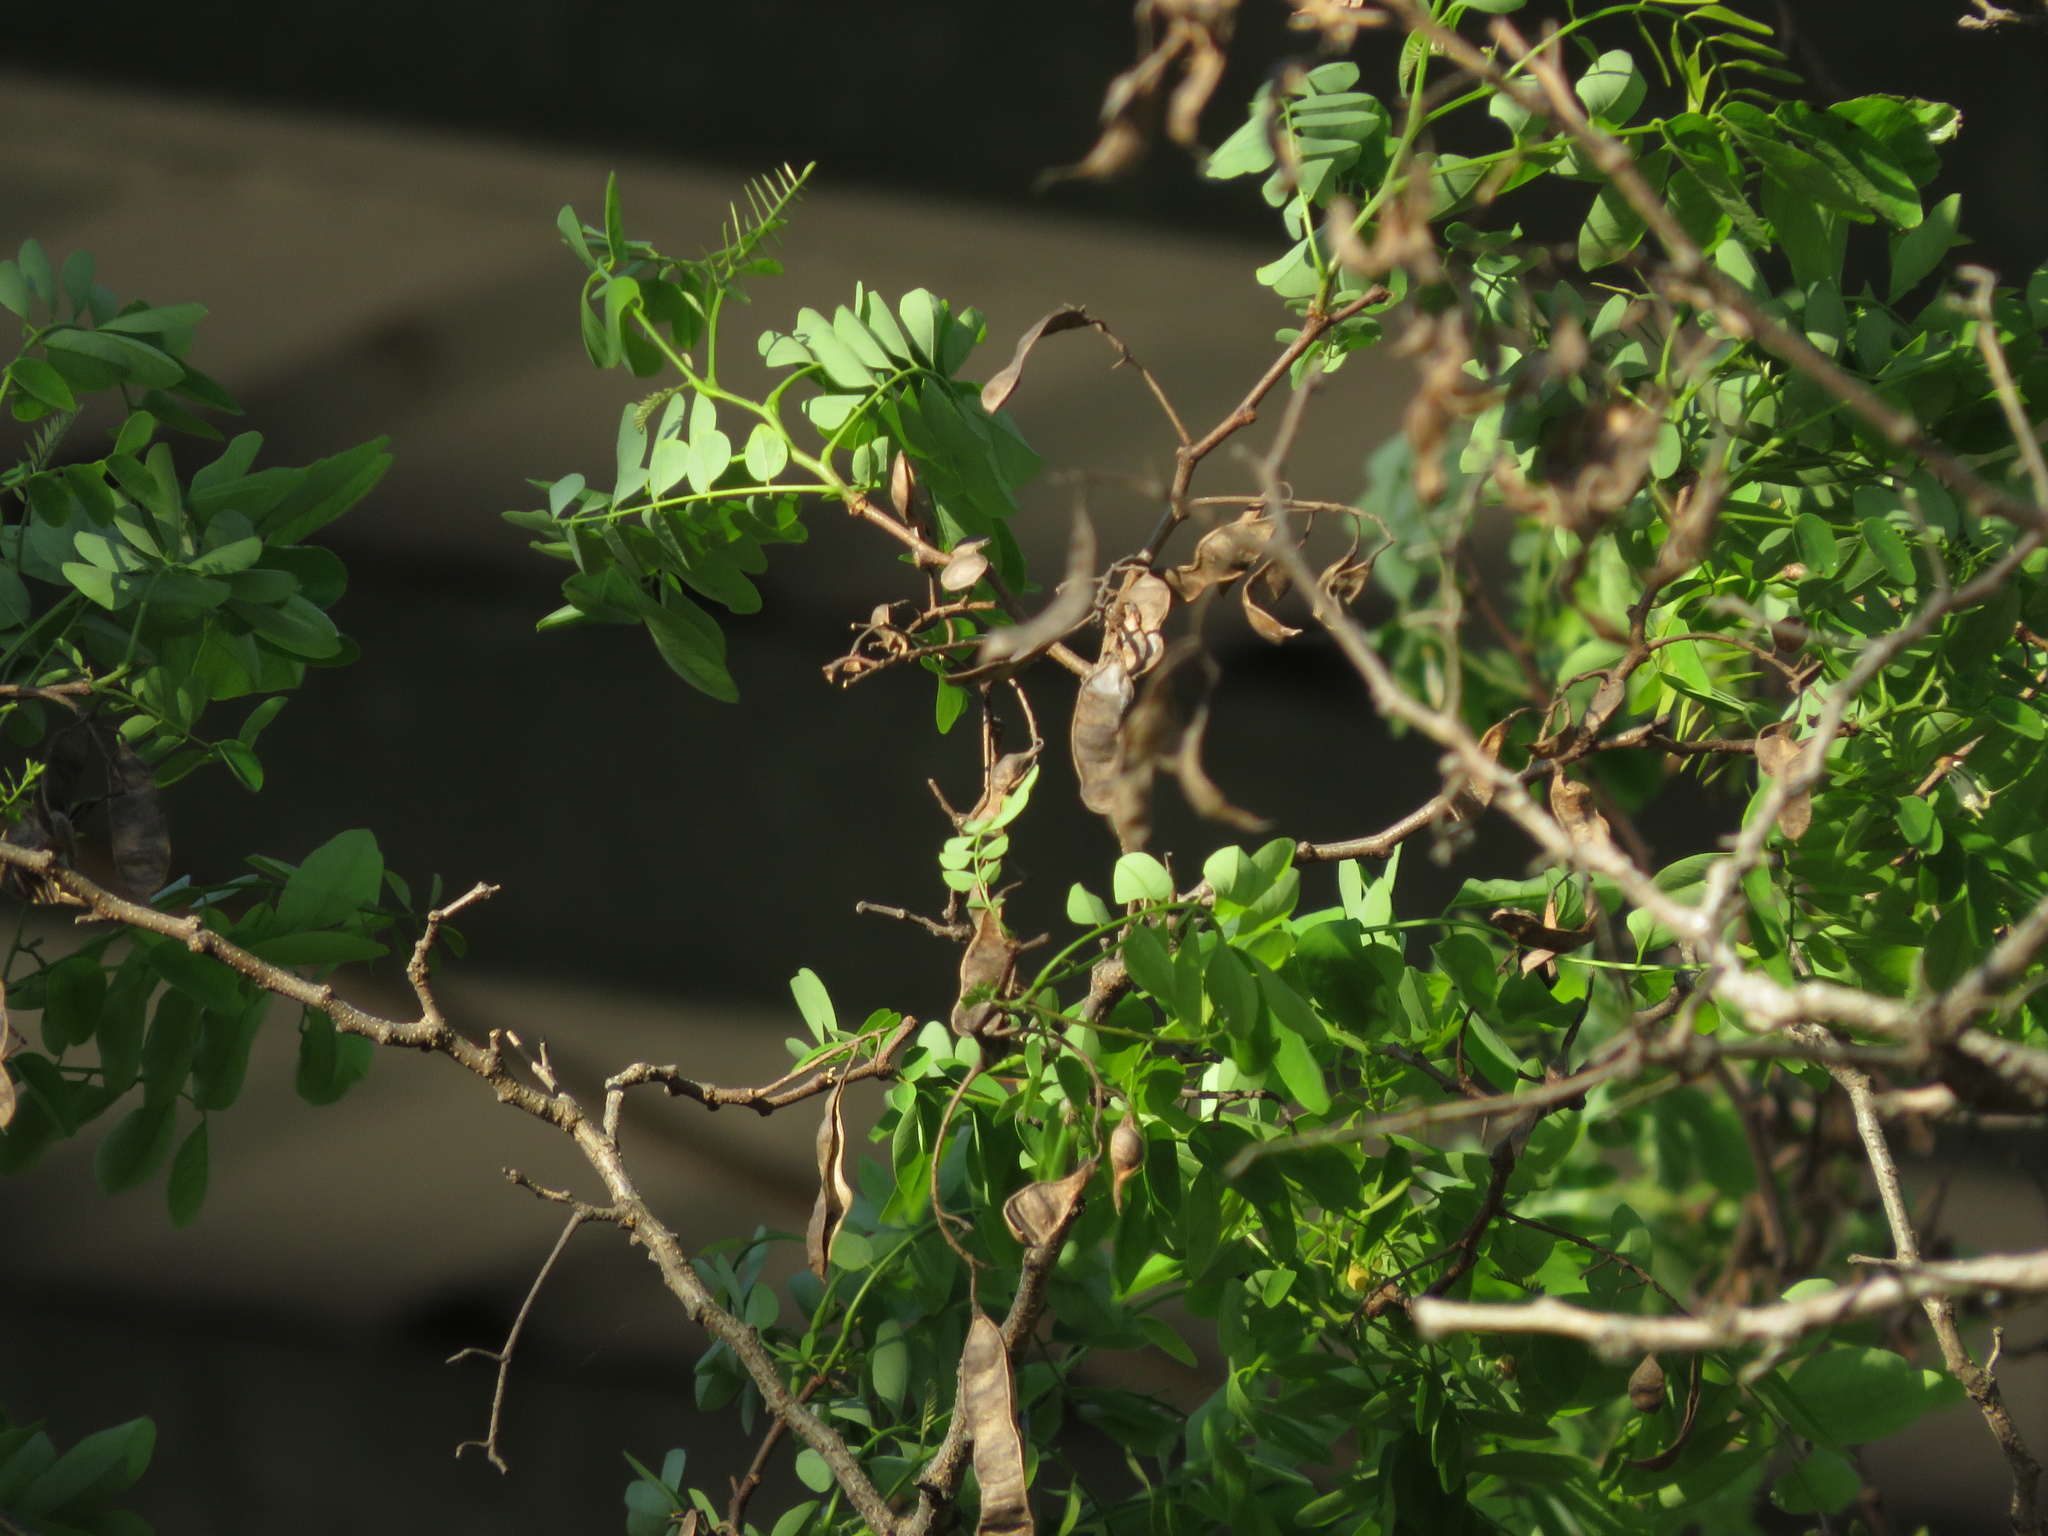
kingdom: Plantae
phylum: Tracheophyta
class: Magnoliopsida
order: Fabales
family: Fabaceae
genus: Robinia
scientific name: Robinia pseudoacacia
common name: Black locust
